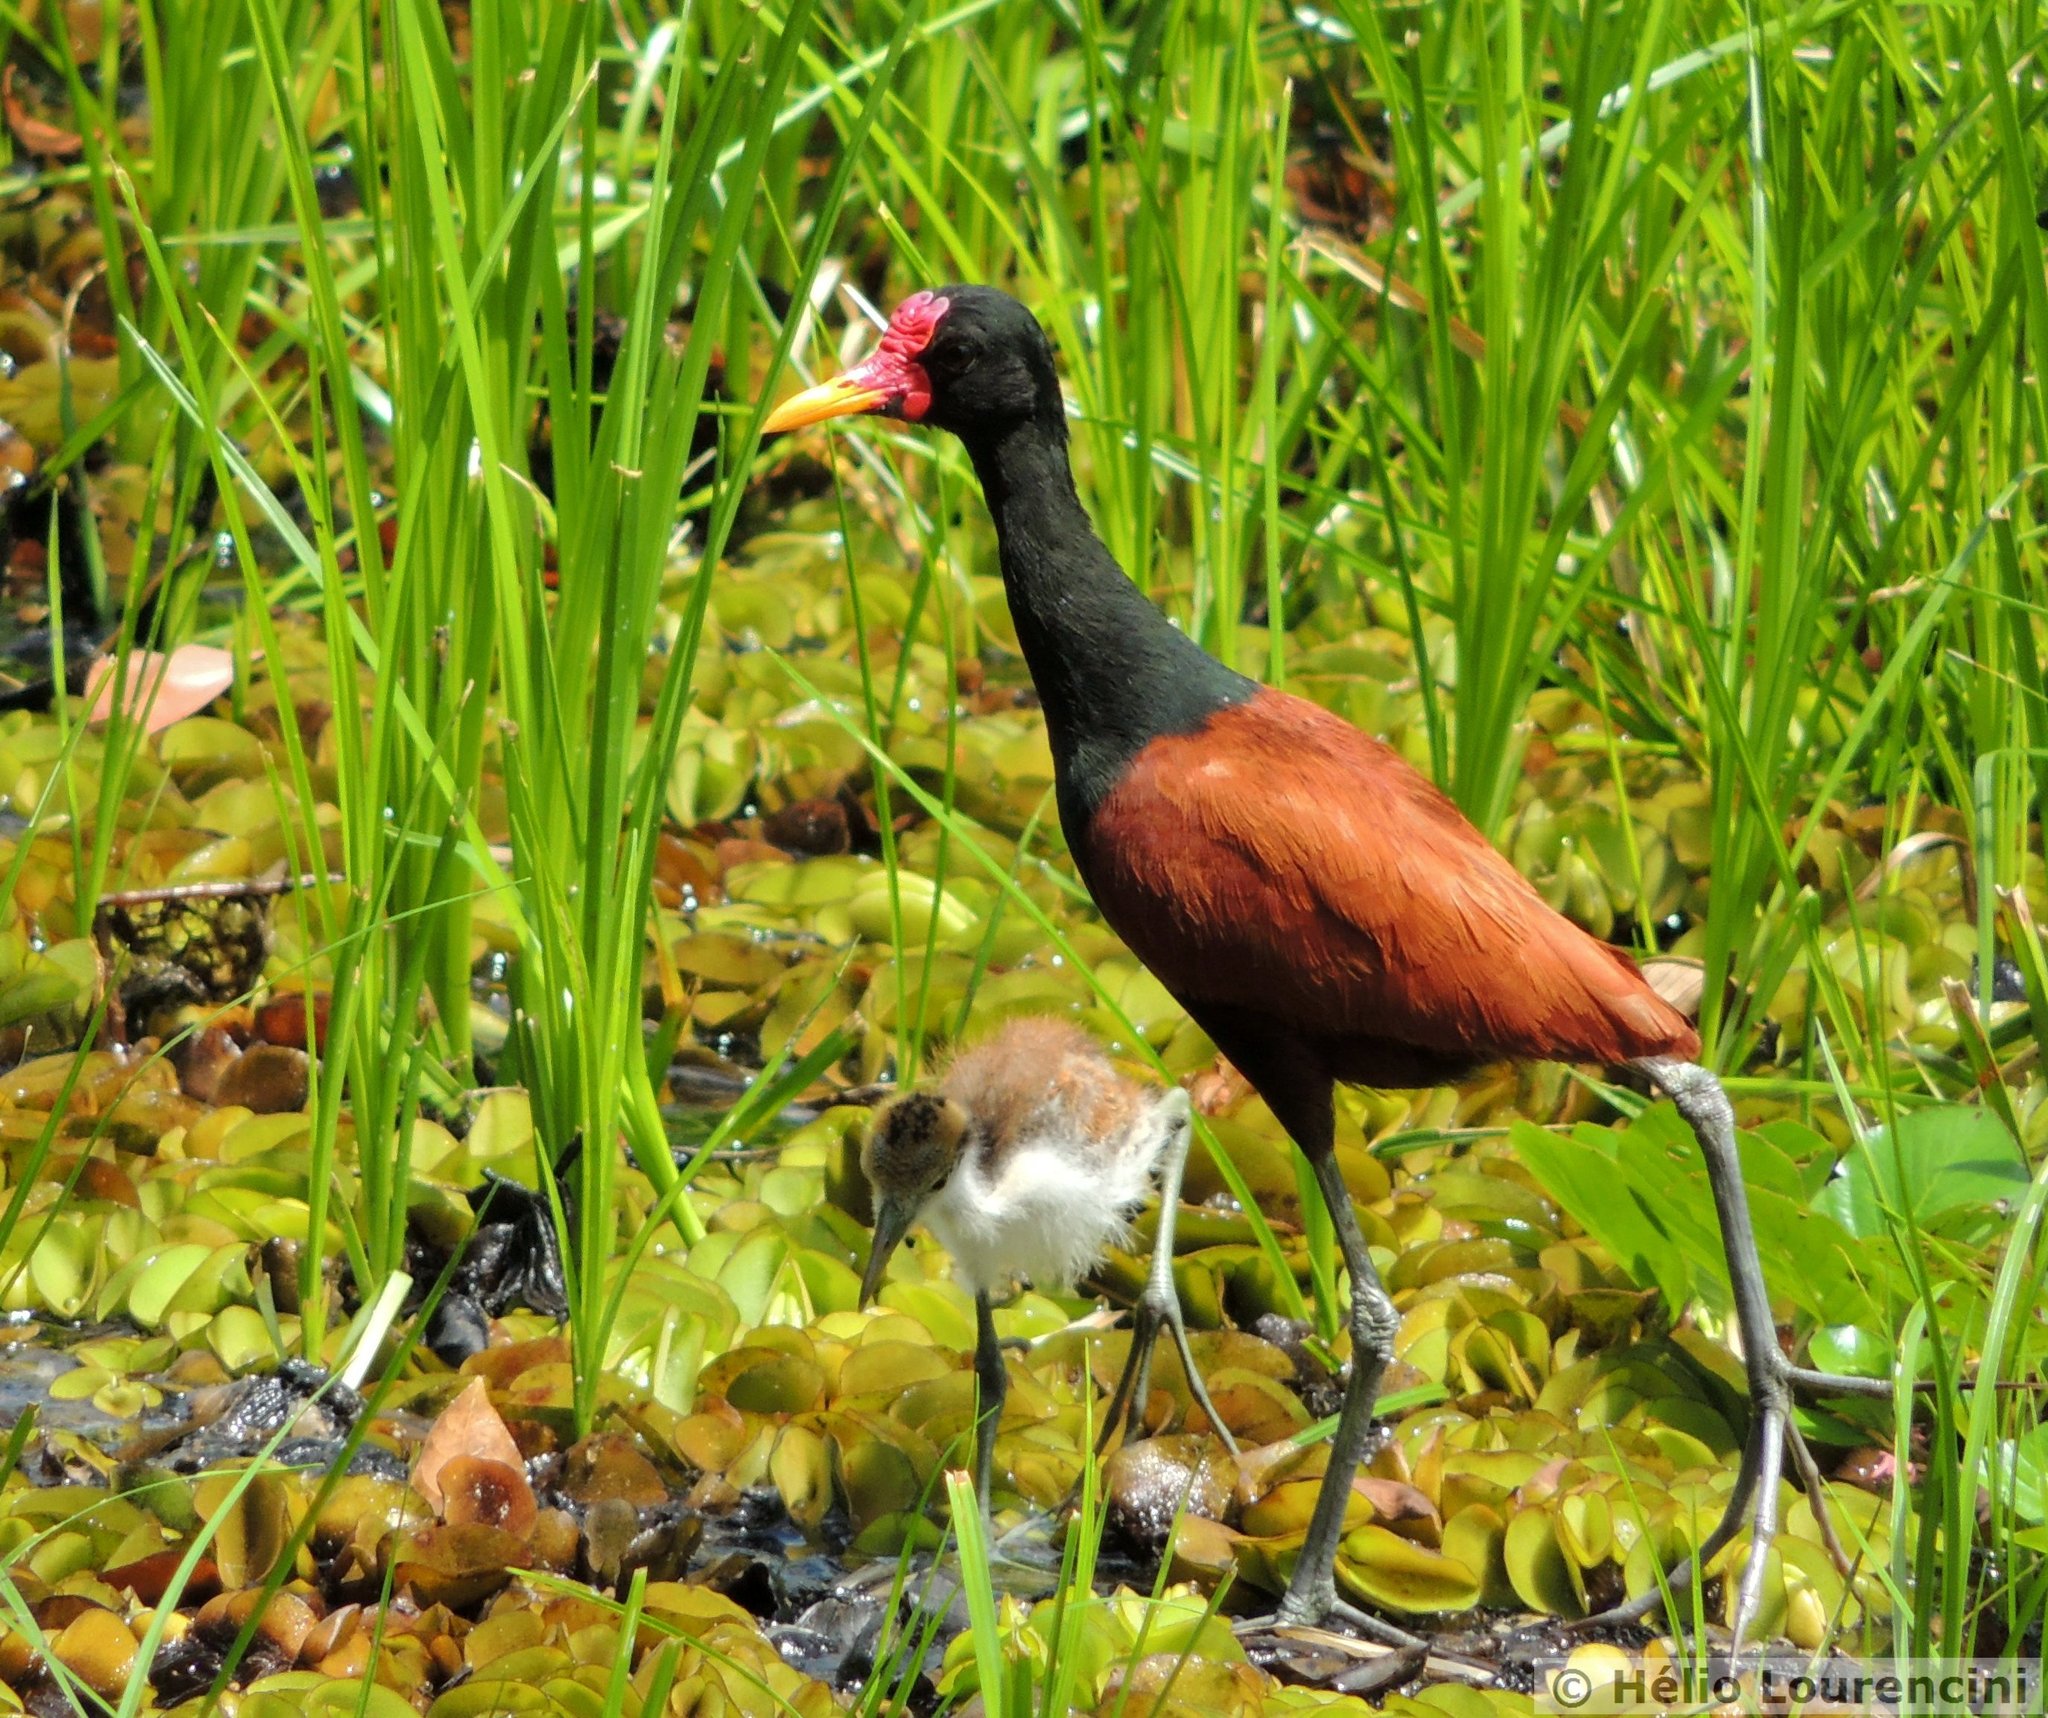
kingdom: Animalia
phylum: Chordata
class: Aves
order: Charadriiformes
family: Jacanidae
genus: Jacana
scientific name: Jacana jacana
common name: Wattled jacana
